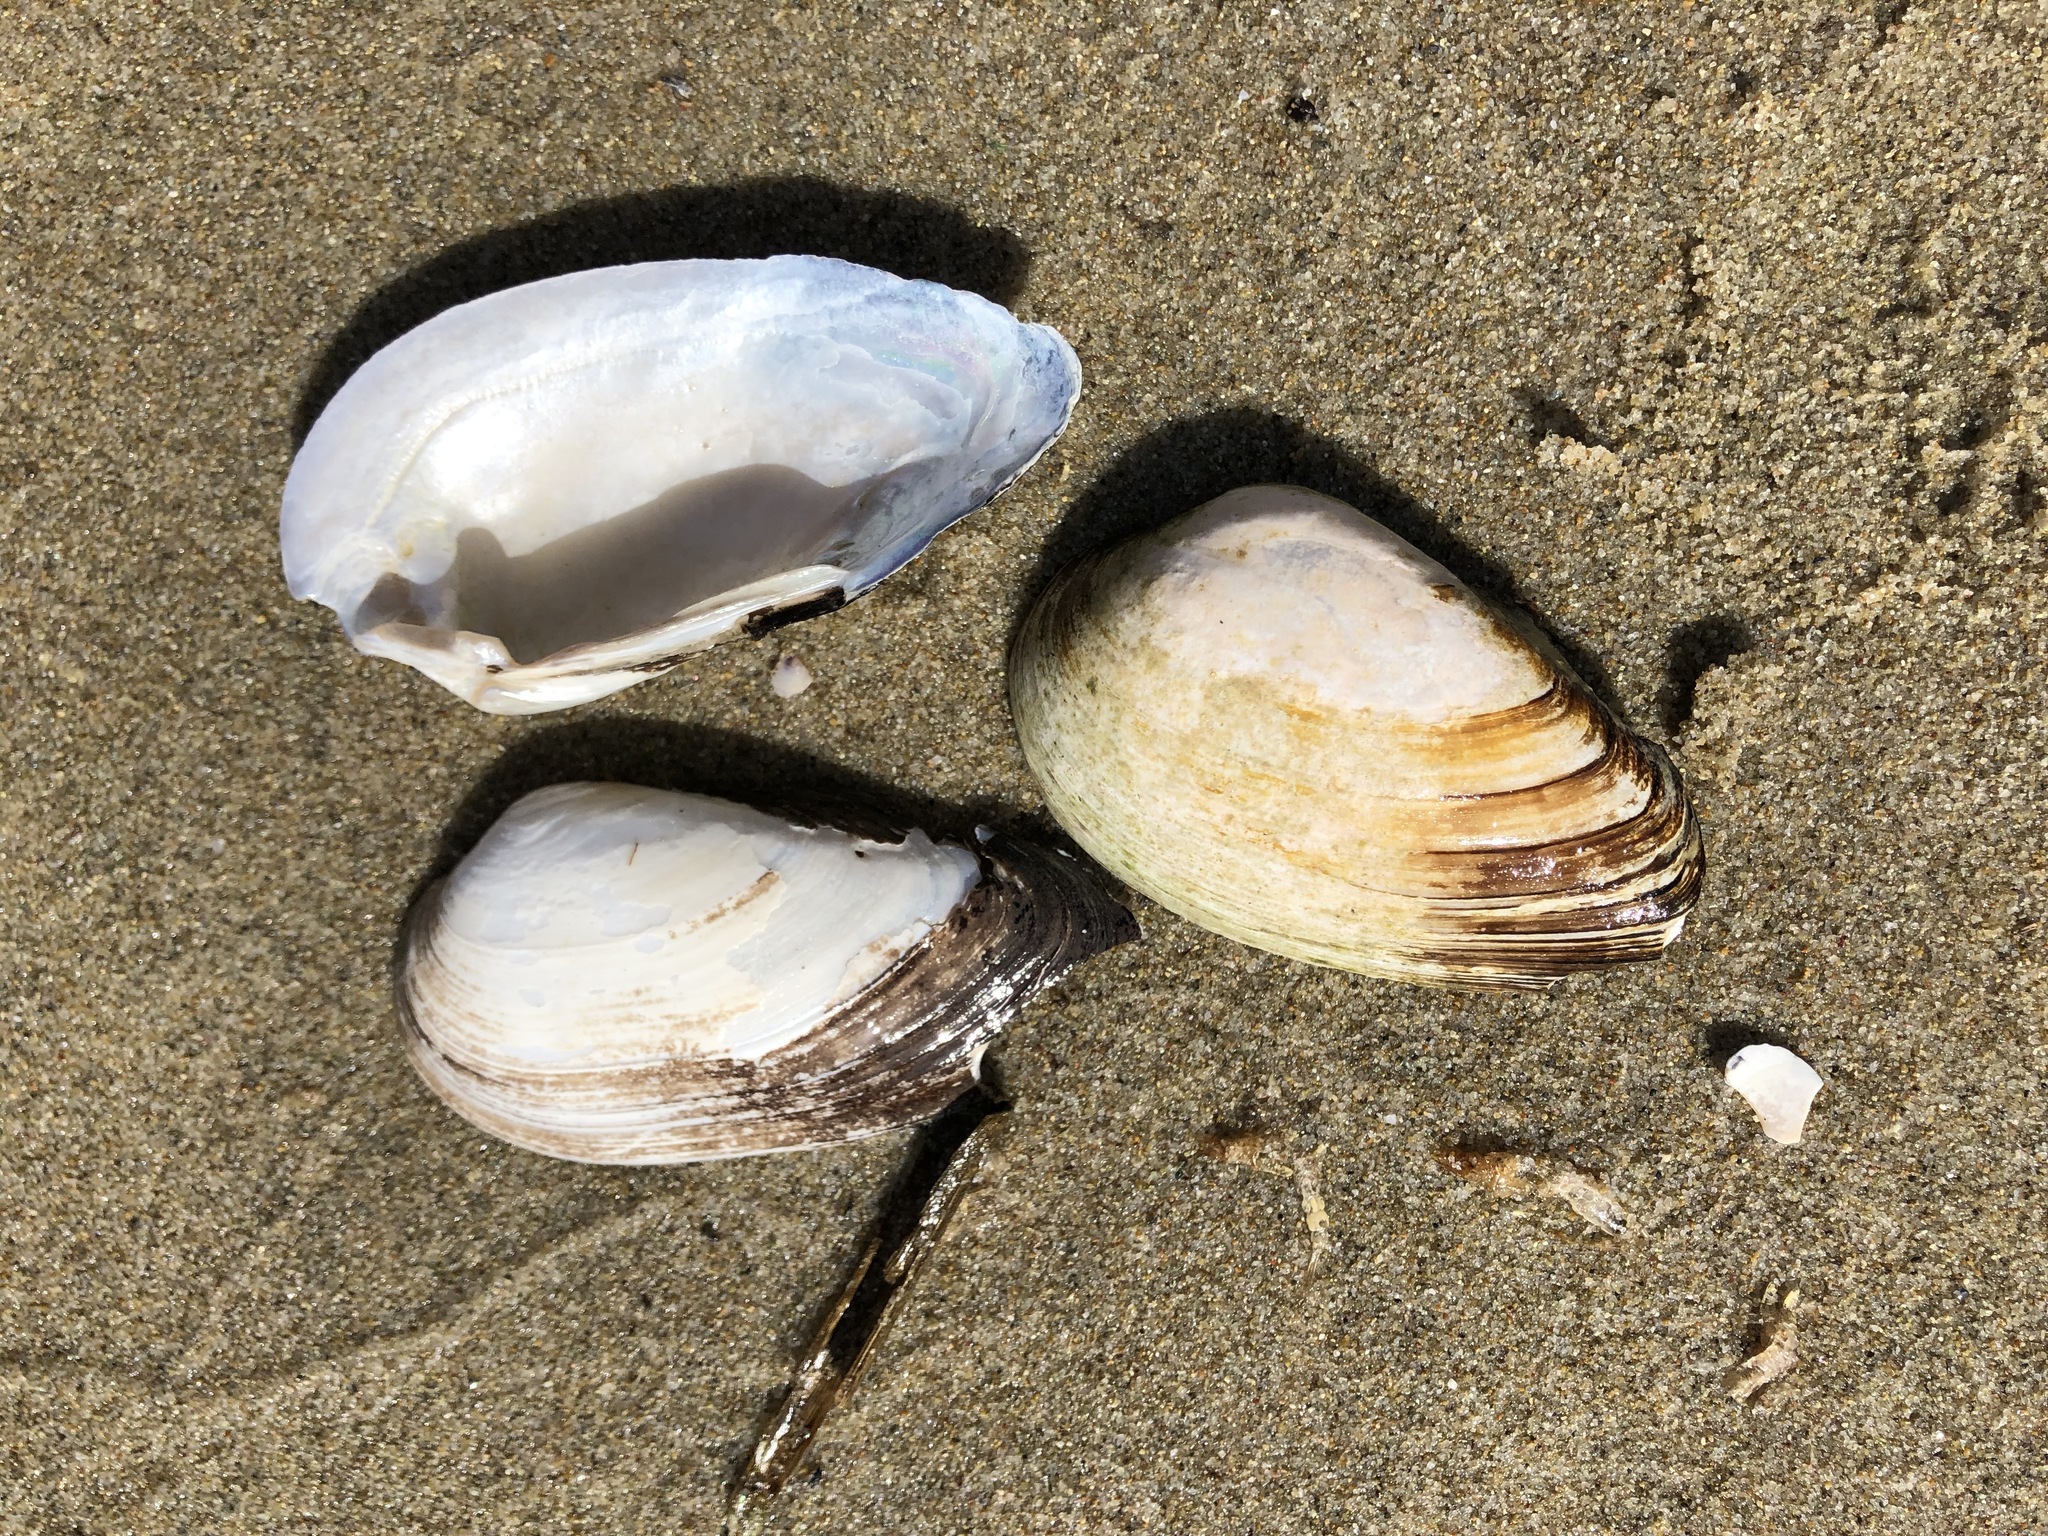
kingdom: Animalia
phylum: Mollusca
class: Bivalvia
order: Unionida
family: Unionidae
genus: Unio
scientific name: Unio tumidus
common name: Swollen river mussel
